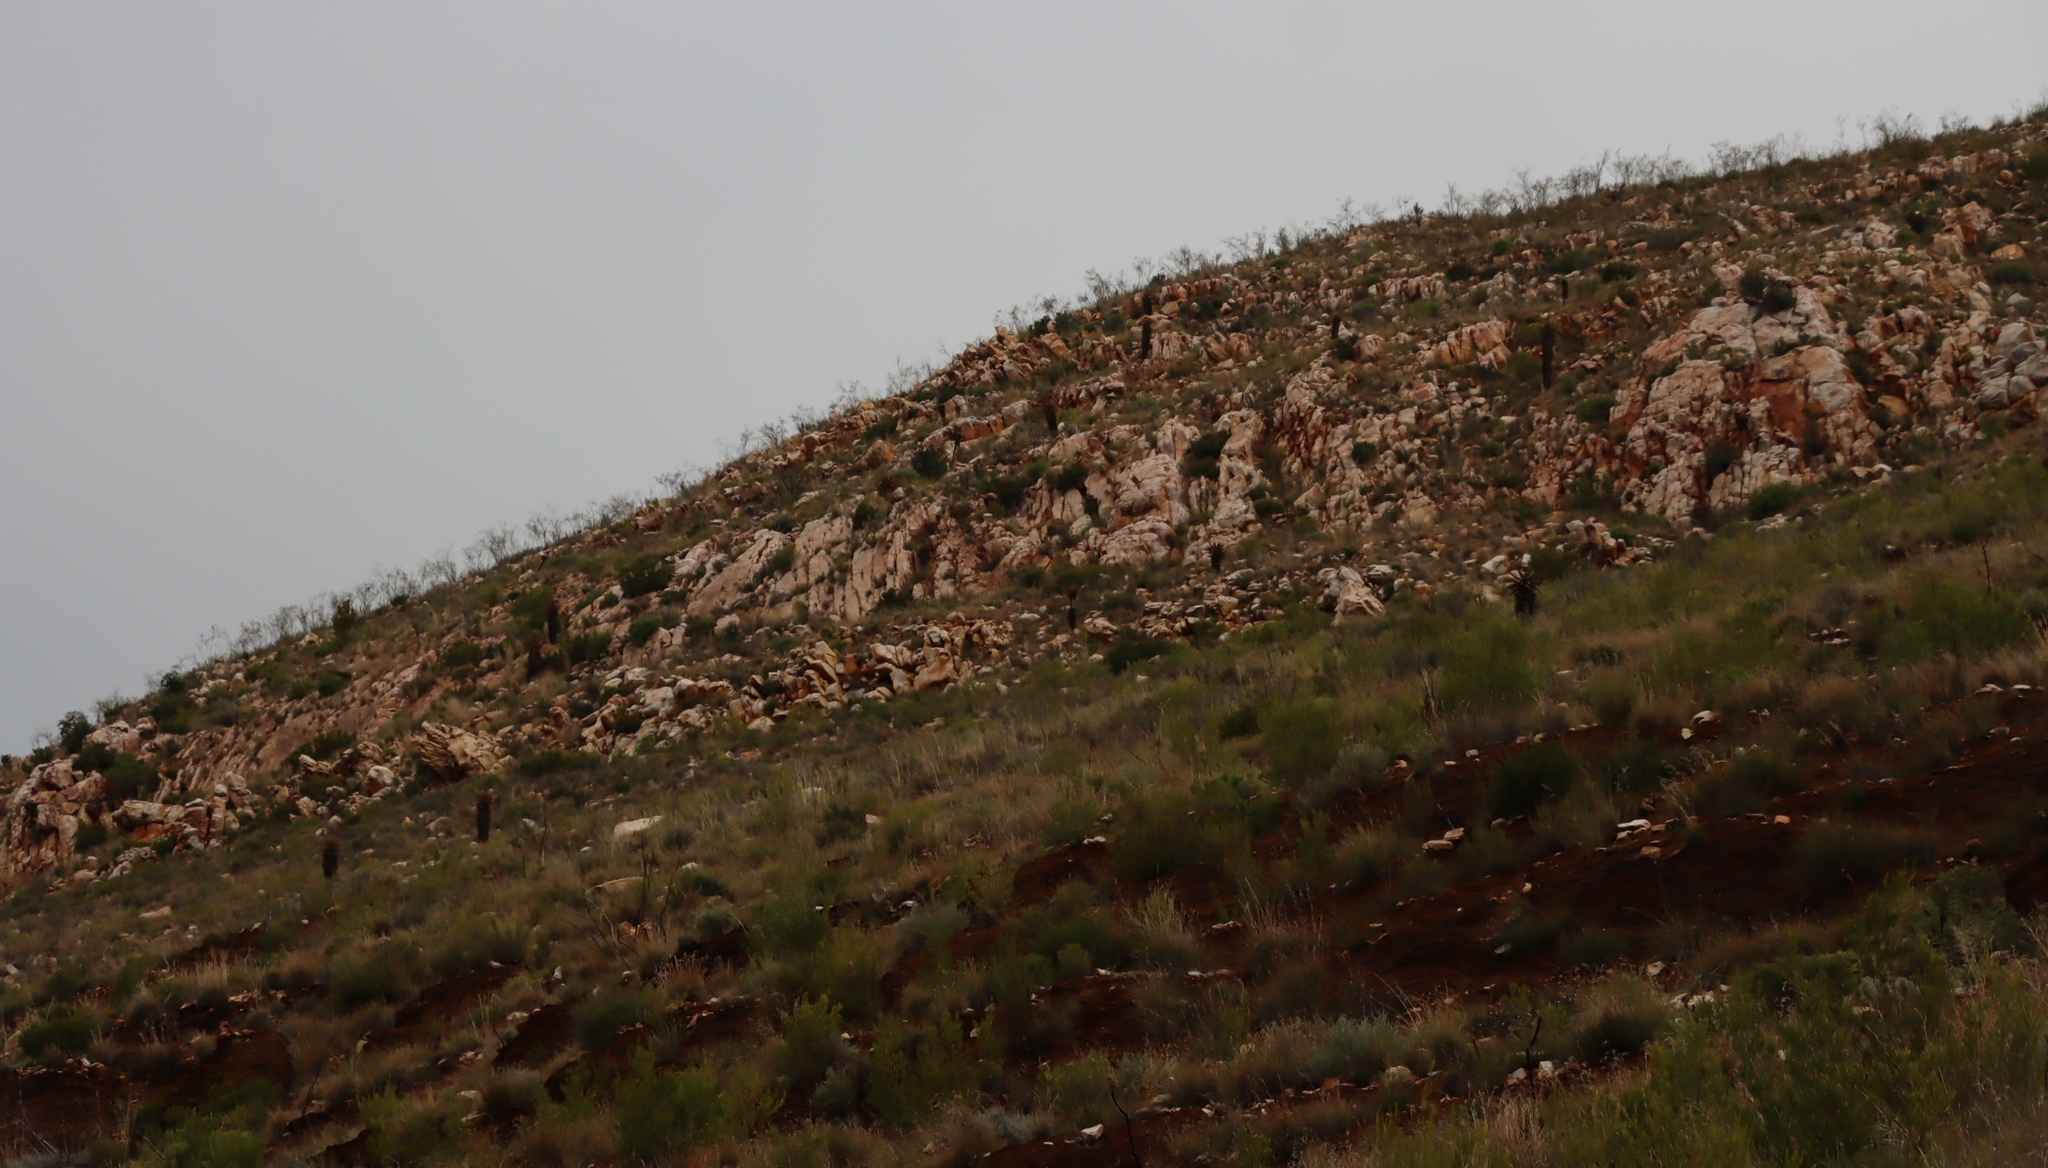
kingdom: Plantae
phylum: Tracheophyta
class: Liliopsida
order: Asparagales
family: Asphodelaceae
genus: Aloe
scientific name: Aloe ferox
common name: Bitter aloe
